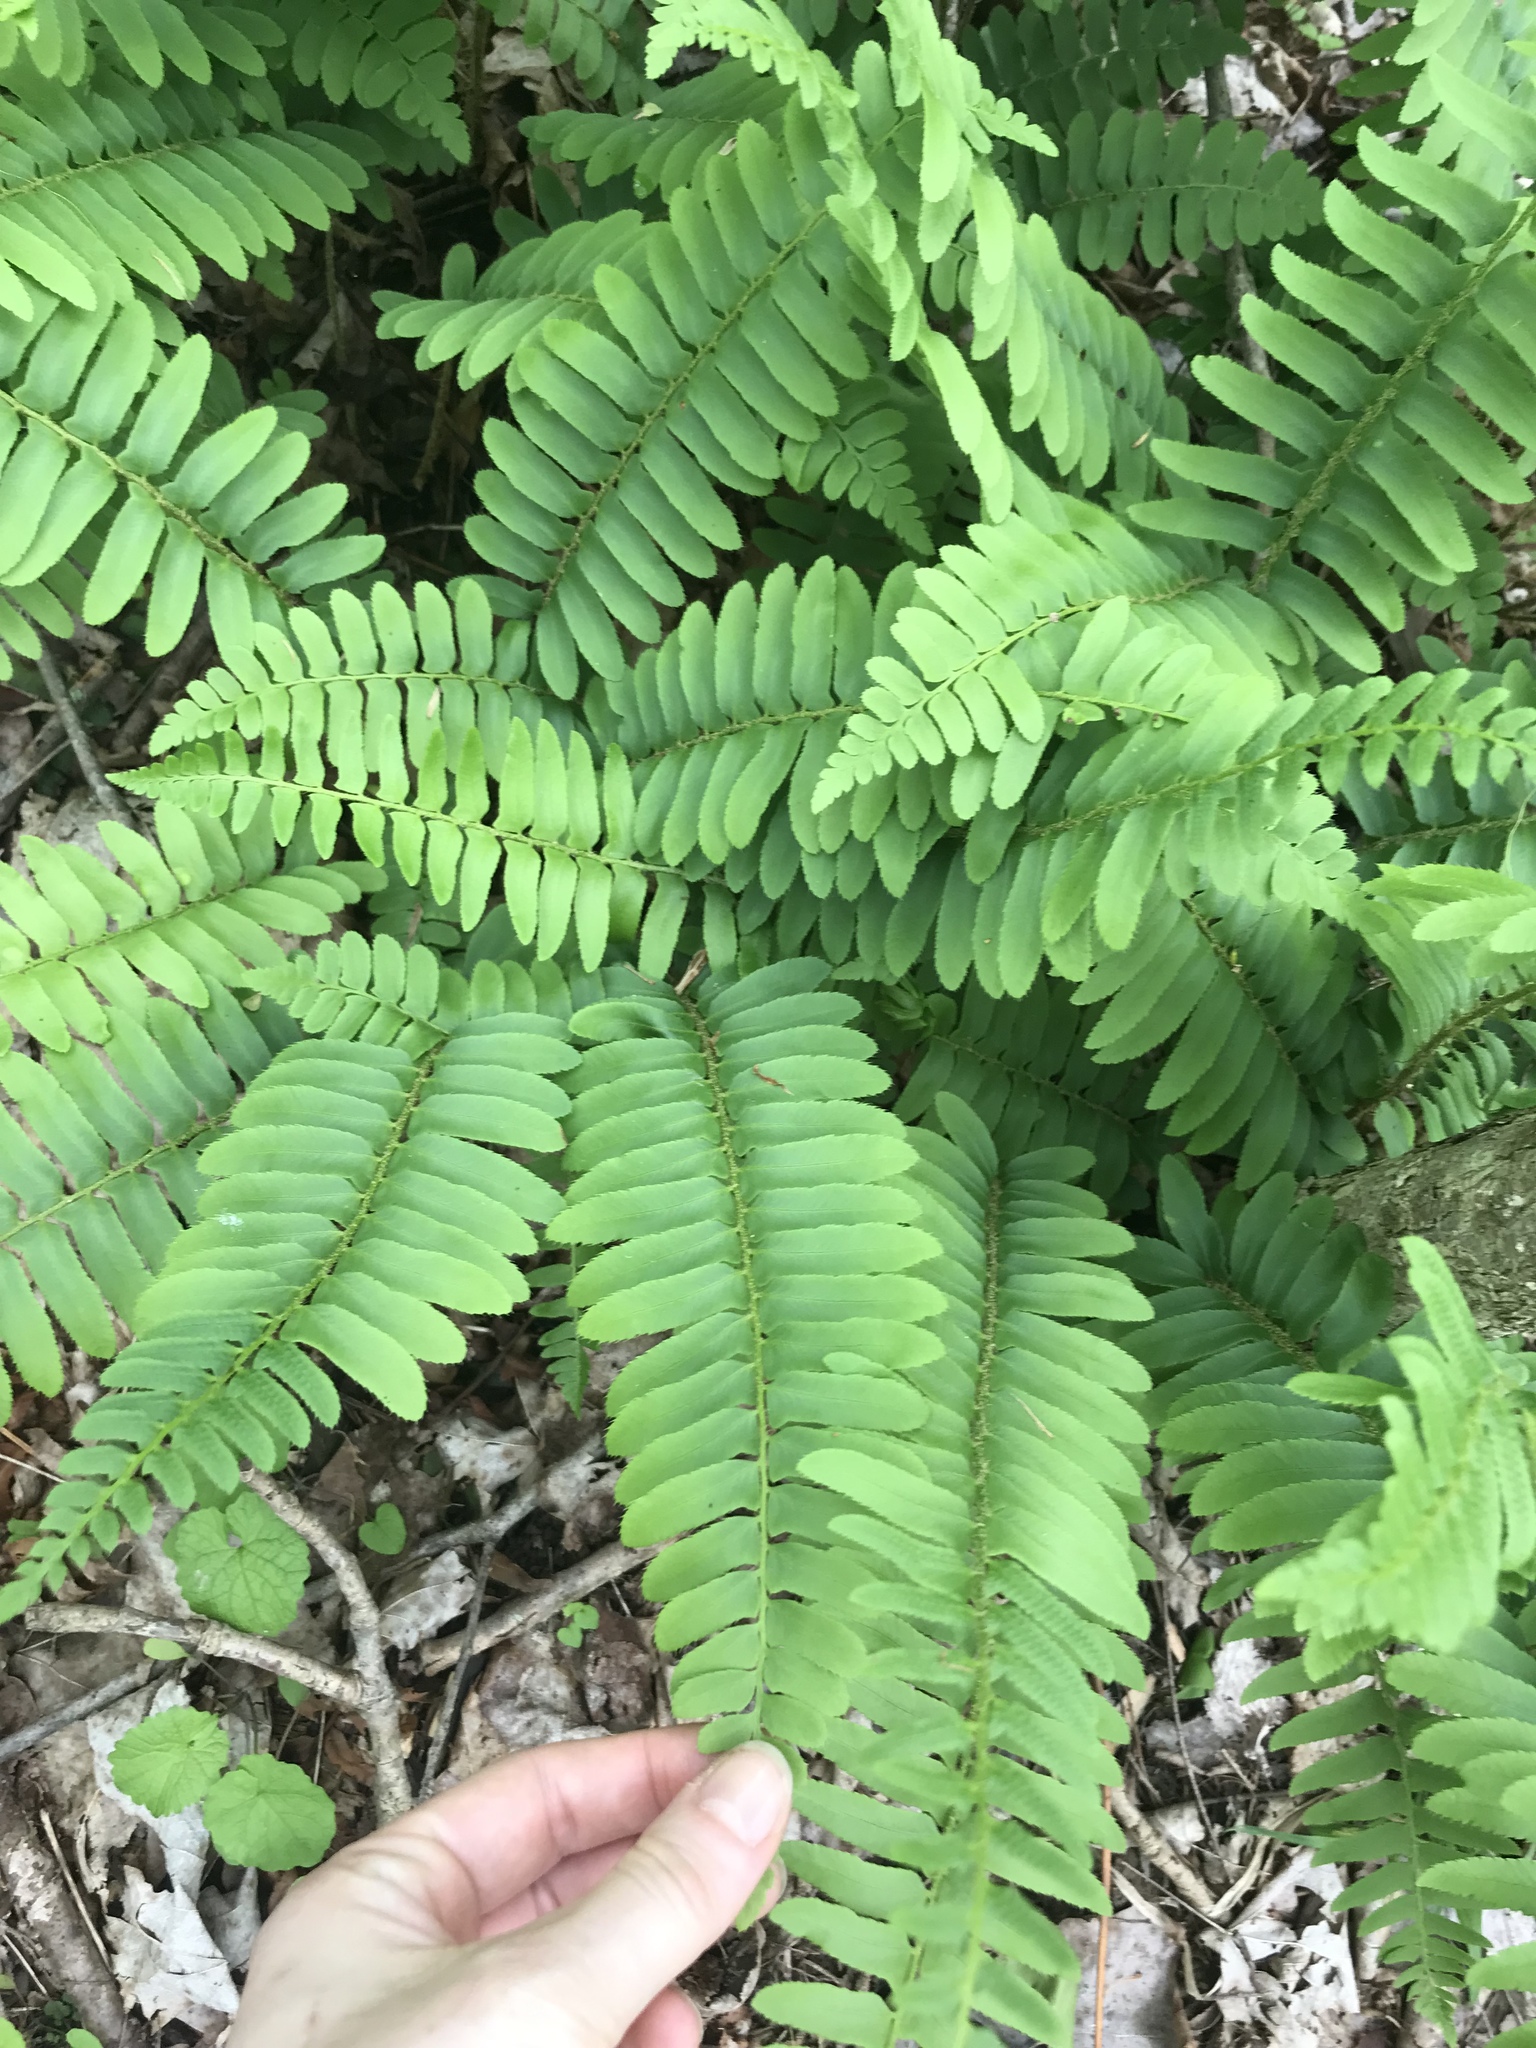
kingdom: Plantae
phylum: Tracheophyta
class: Polypodiopsida
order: Polypodiales
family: Dryopteridaceae
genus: Polystichum
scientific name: Polystichum acrostichoides
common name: Christmas fern
